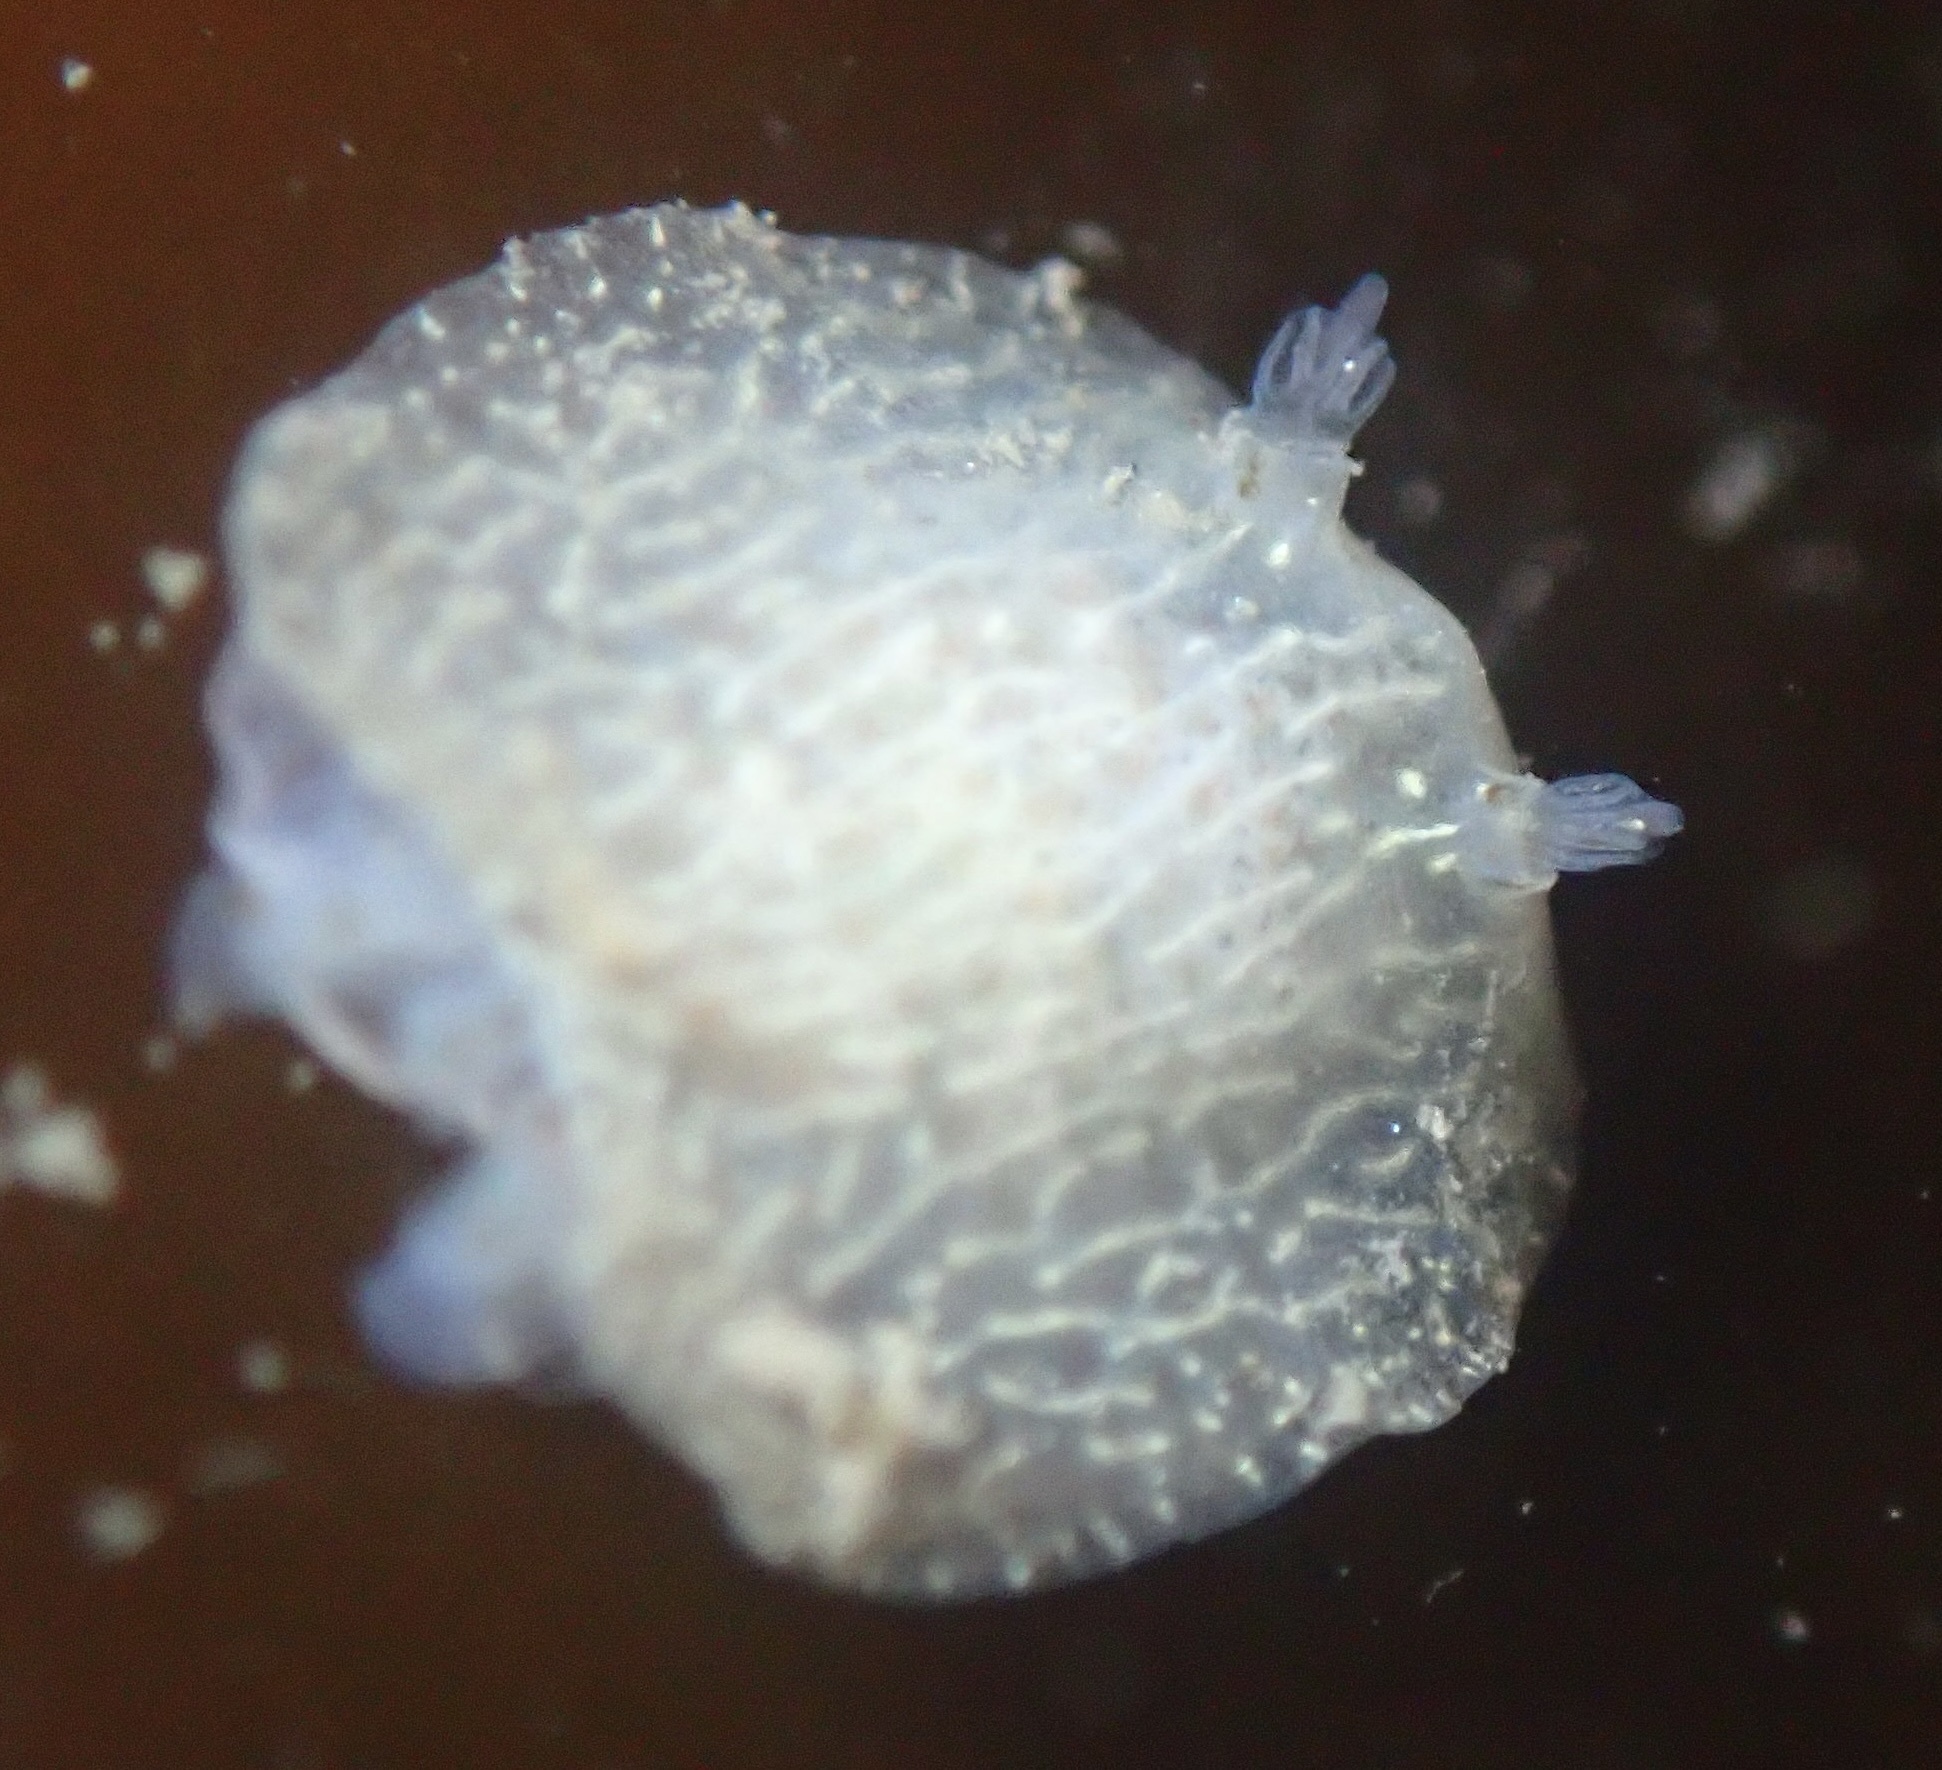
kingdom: Animalia
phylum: Mollusca
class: Gastropoda
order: Nudibranchia
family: Corambidae
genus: Corambe
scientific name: Corambe pacifica
